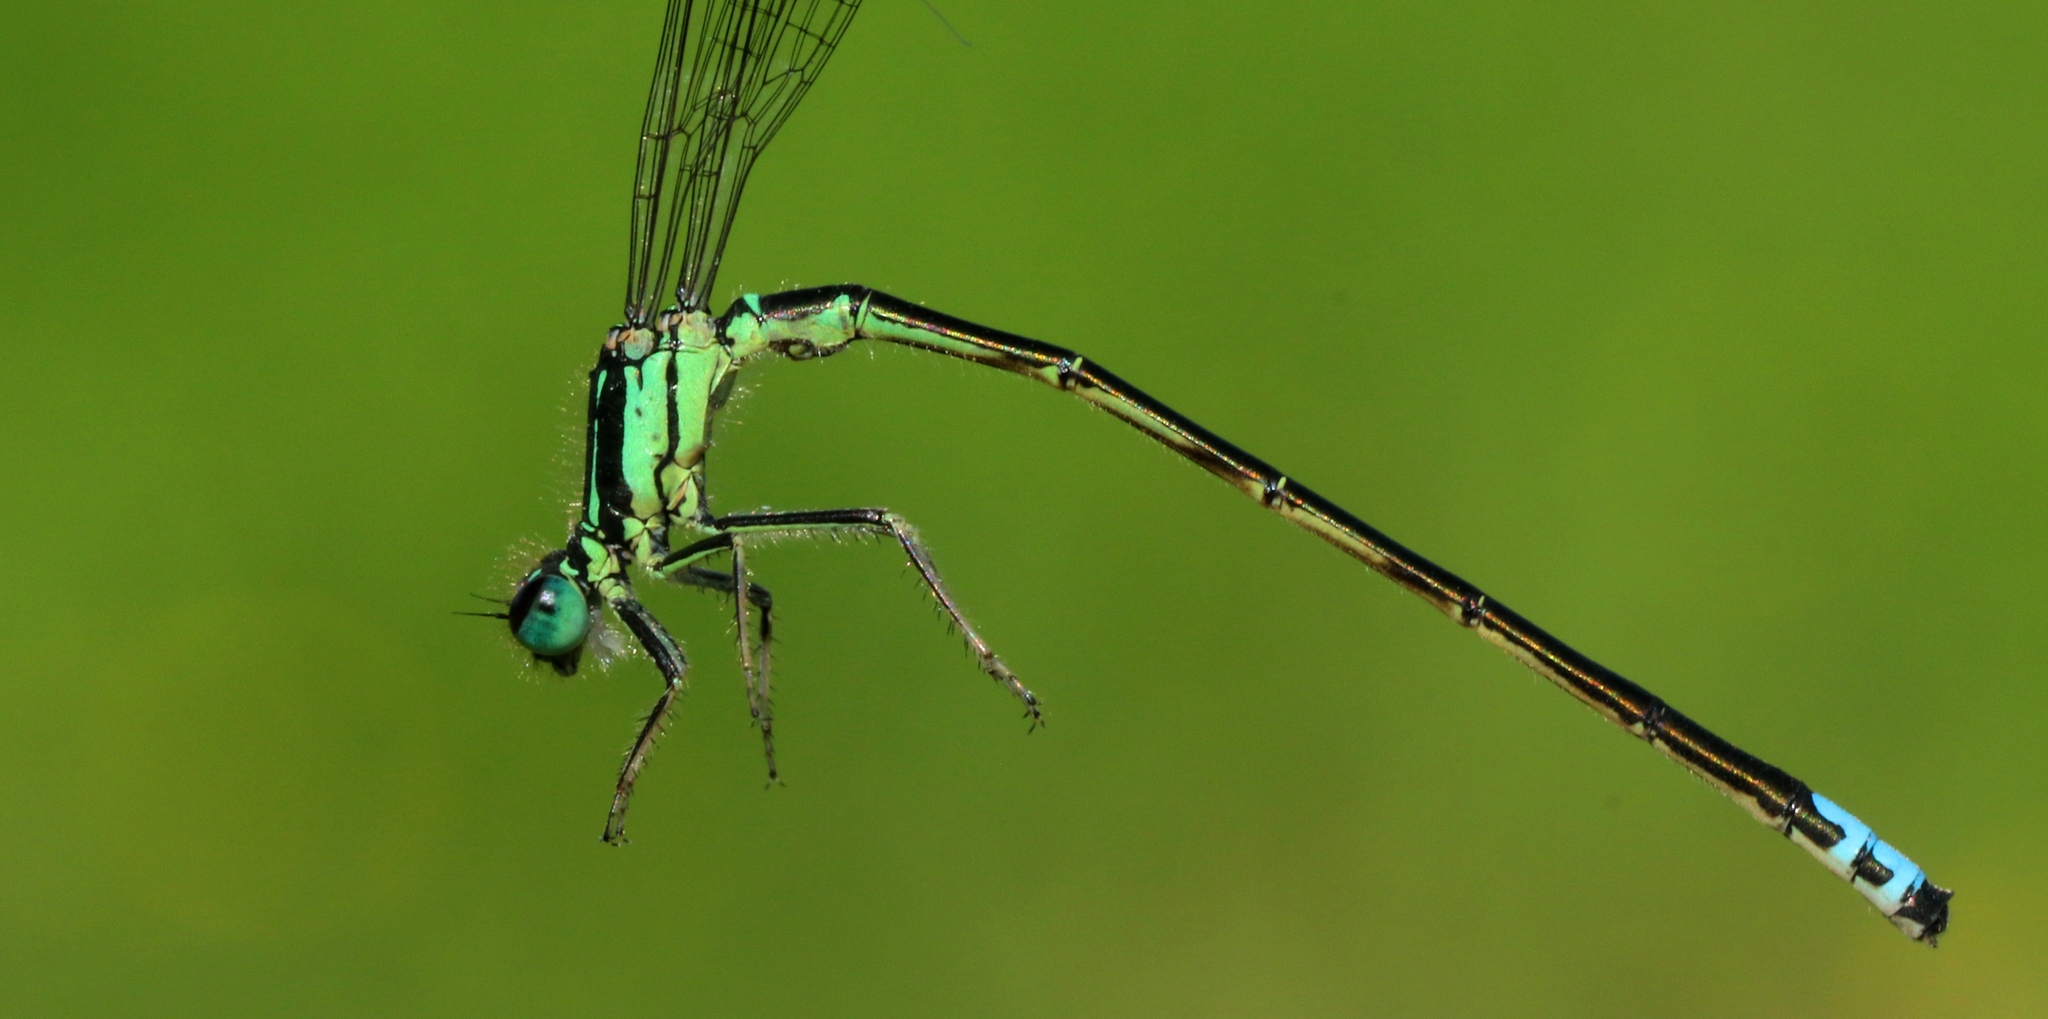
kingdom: Animalia
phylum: Arthropoda
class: Insecta
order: Odonata
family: Coenagrionidae
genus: Ischnura
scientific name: Ischnura verticalis
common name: Eastern forktail
